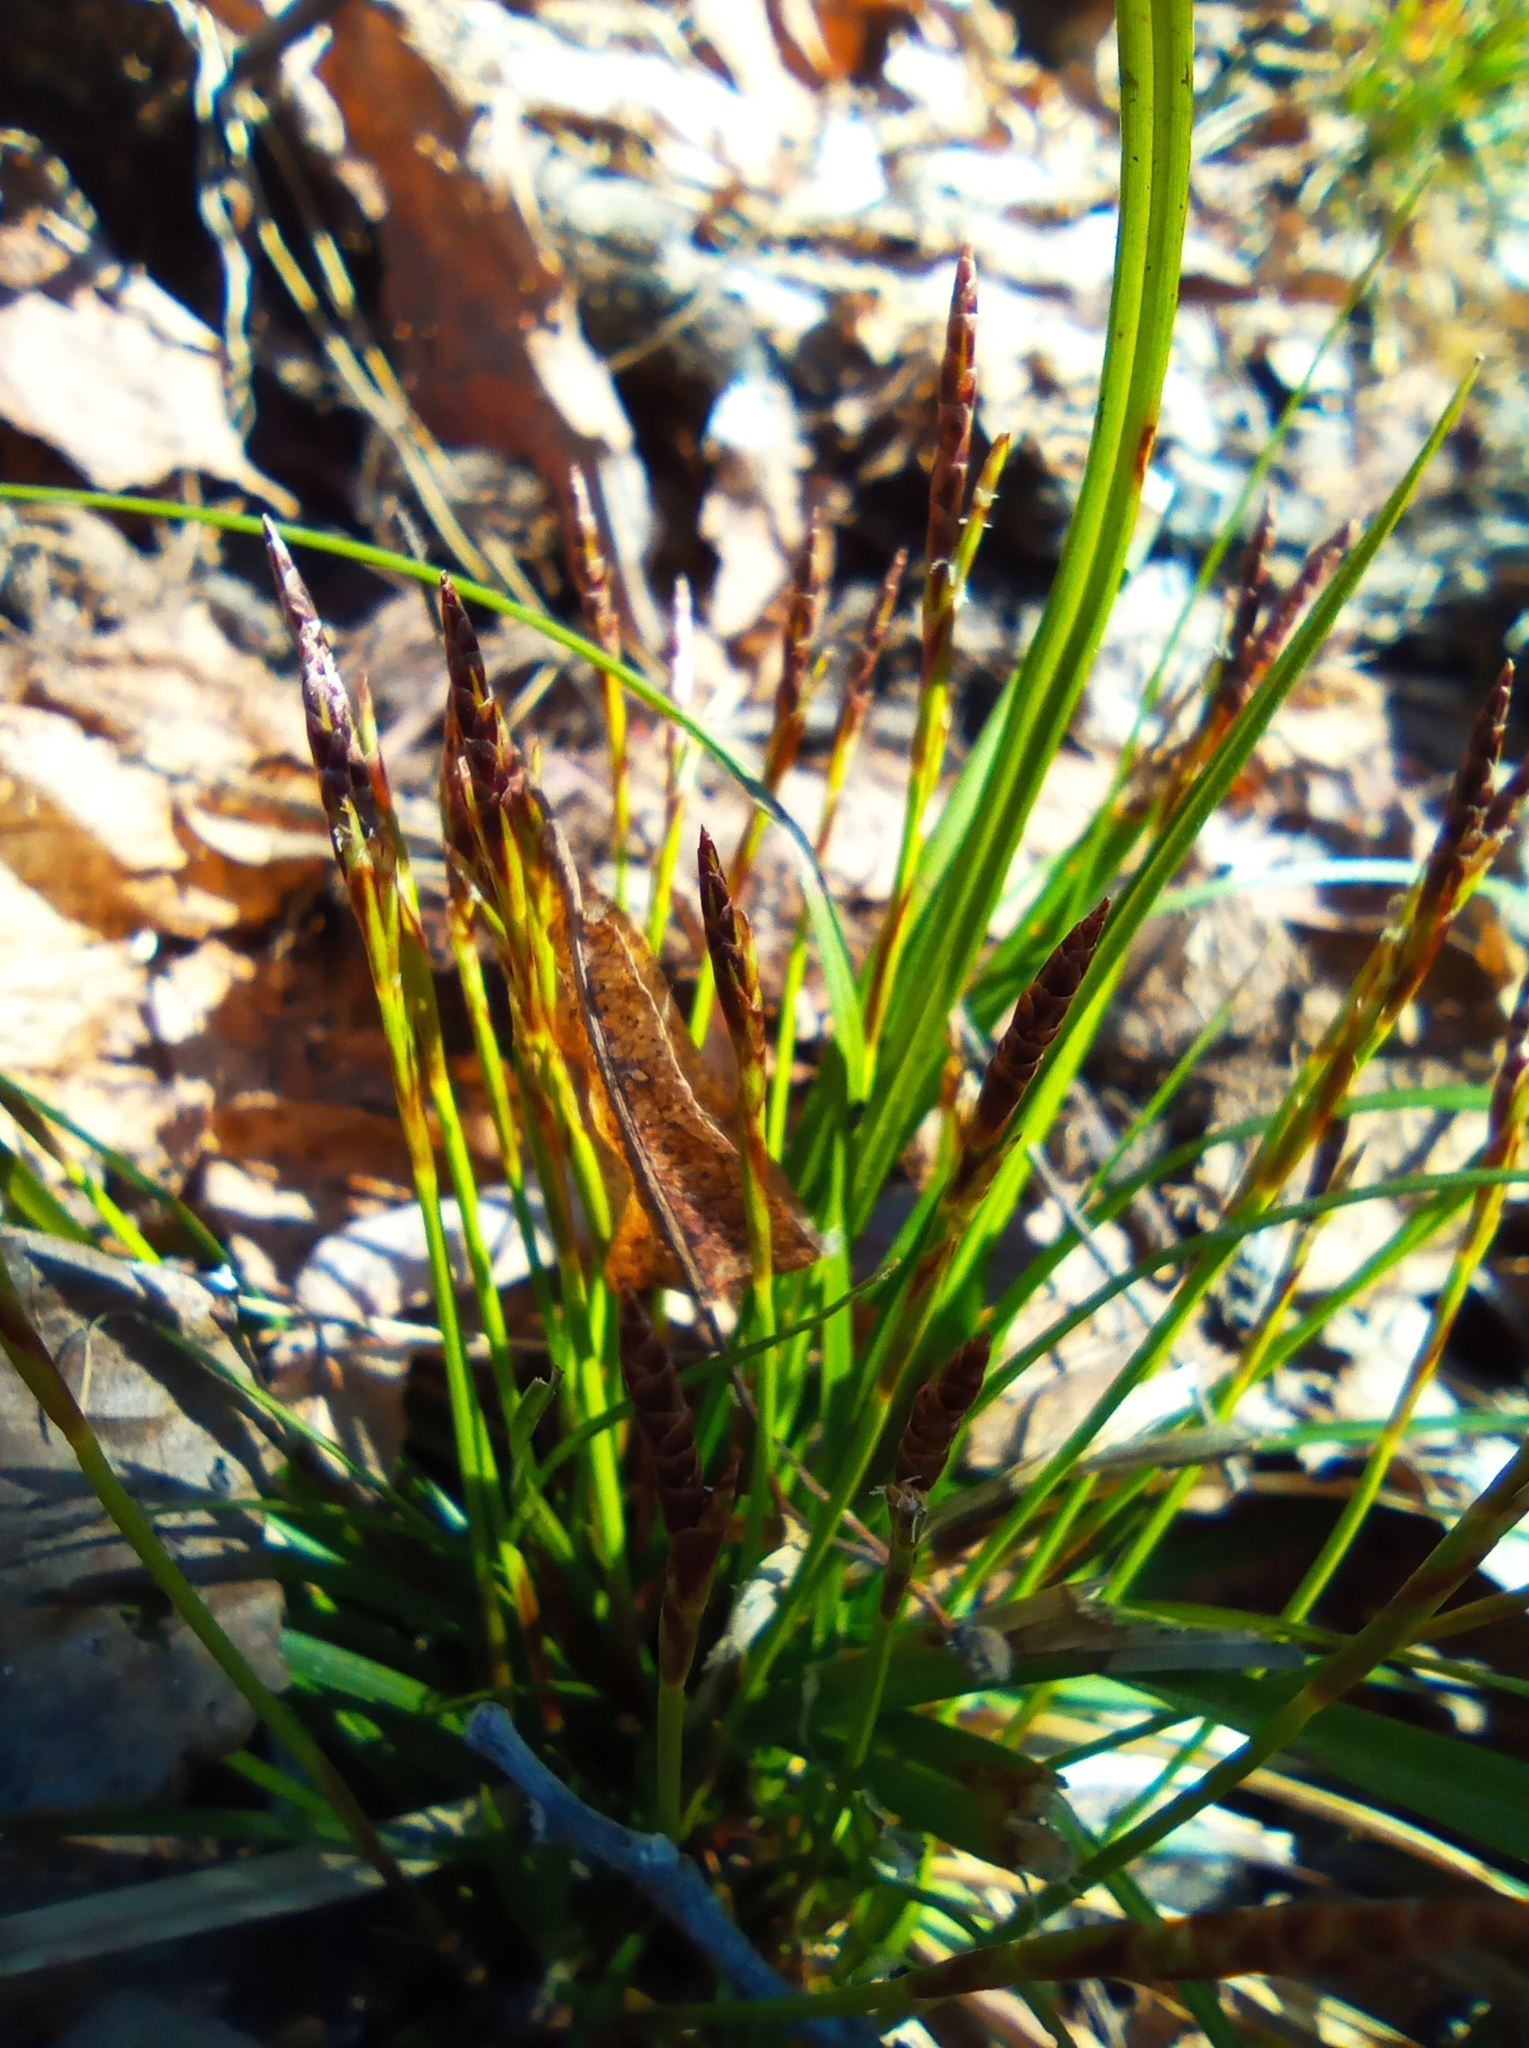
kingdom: Plantae
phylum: Tracheophyta
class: Liliopsida
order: Poales
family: Cyperaceae
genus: Carex
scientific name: Carex digitata
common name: Fingered sedge
